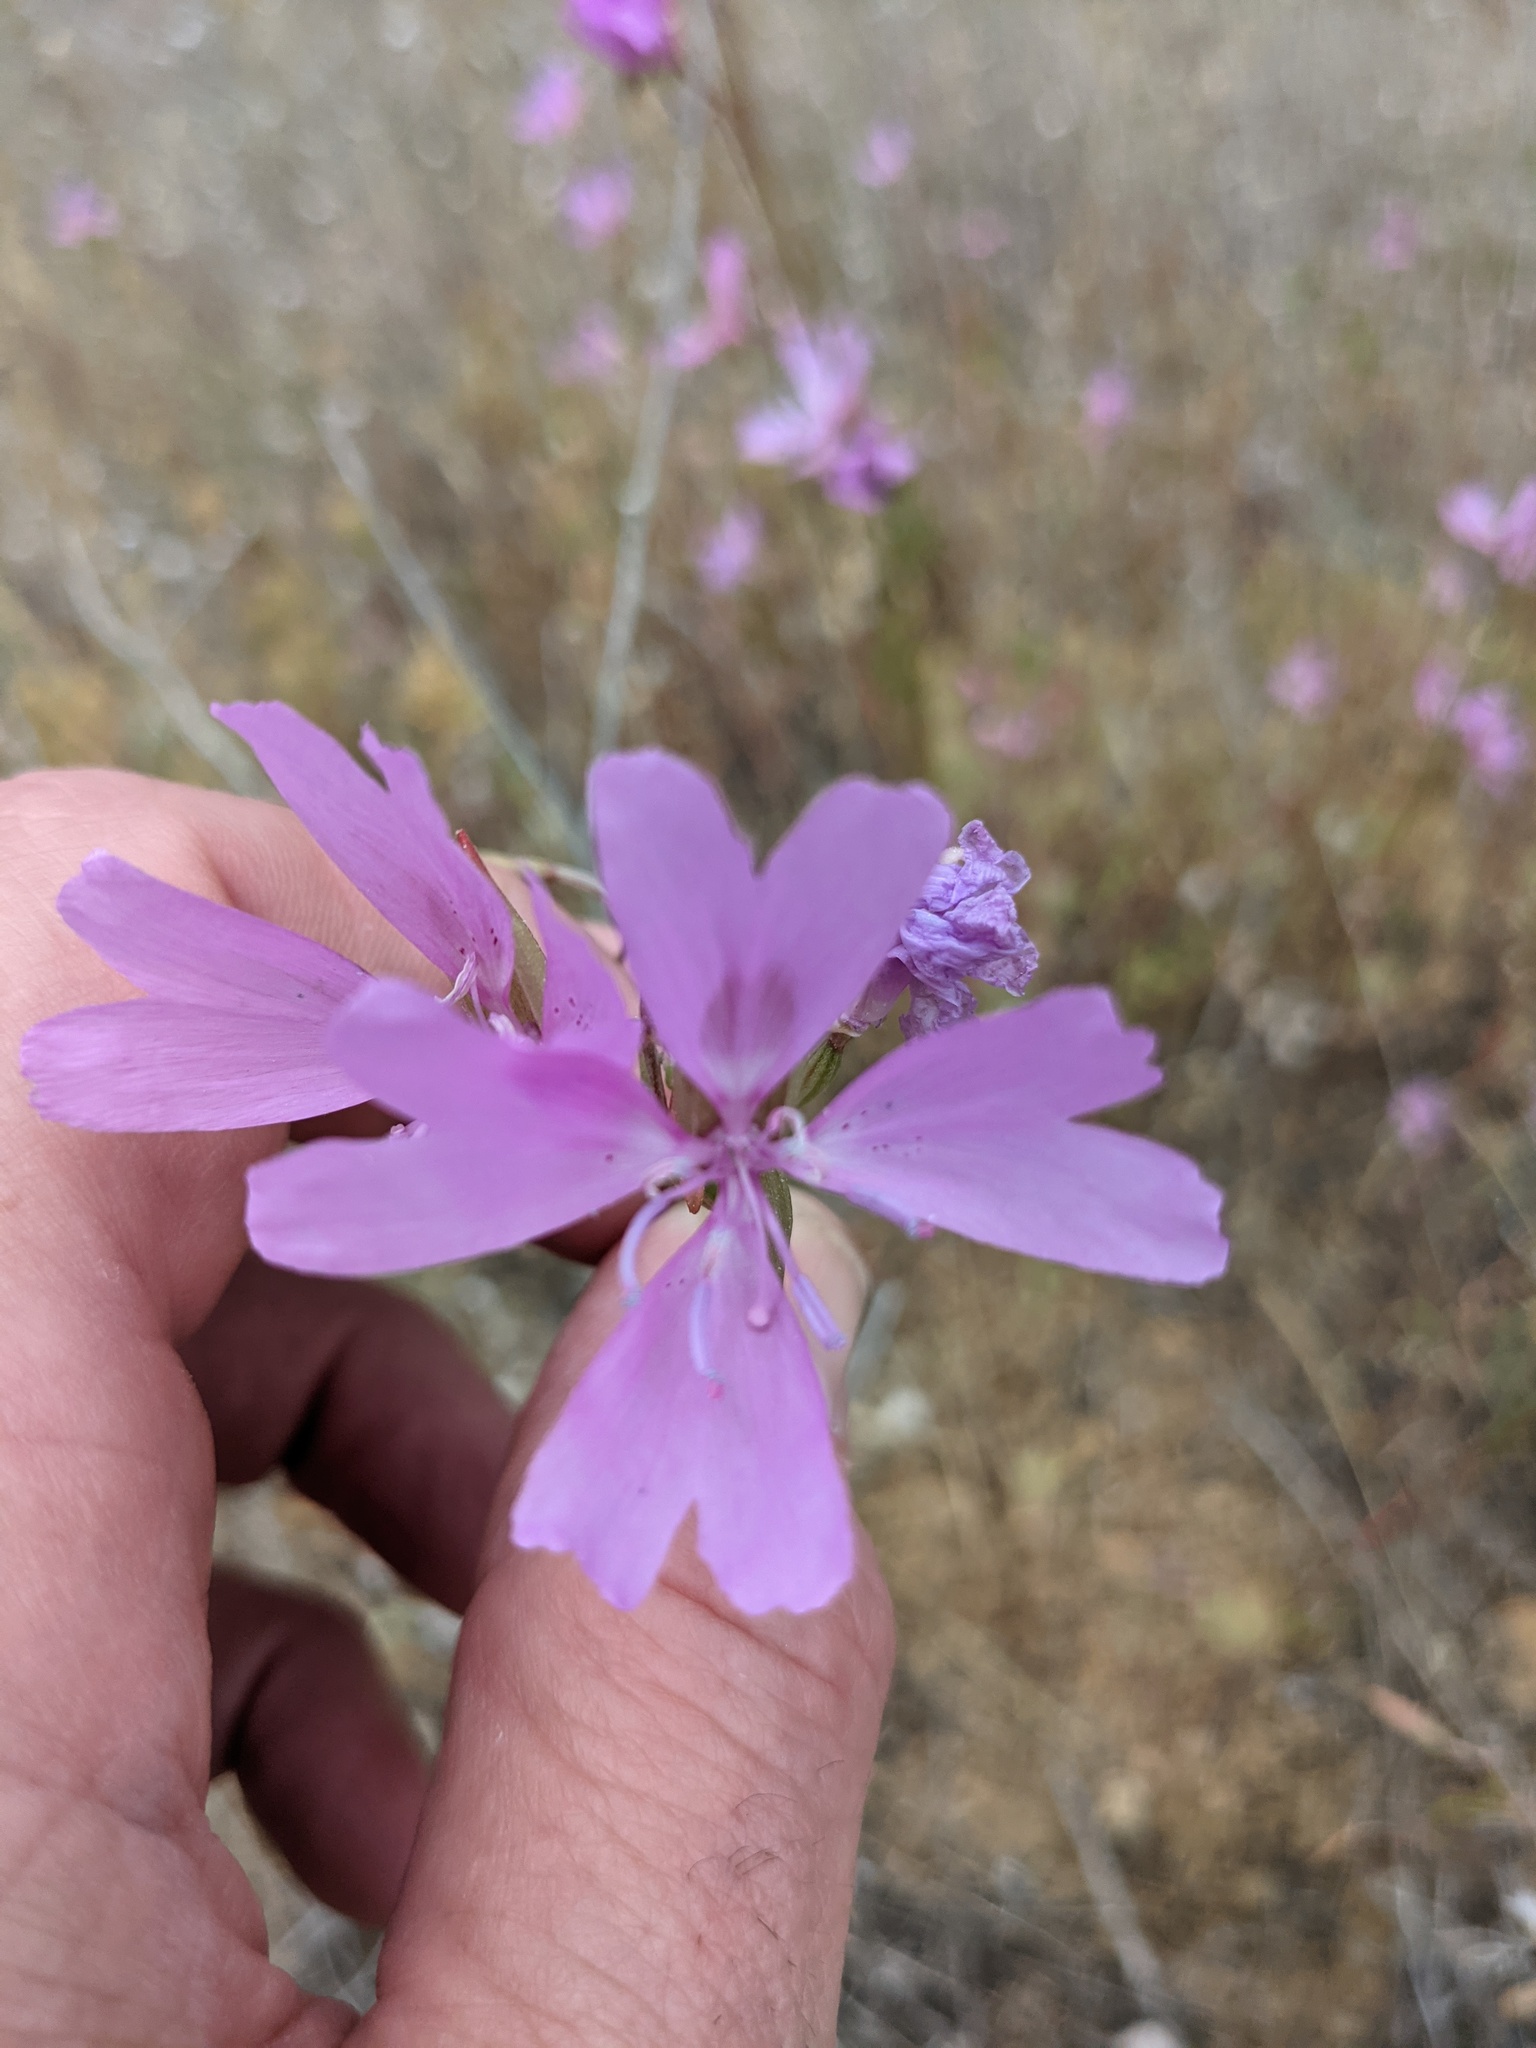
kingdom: Plantae
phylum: Tracheophyta
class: Magnoliopsida
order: Myrtales
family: Onagraceae
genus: Clarkia
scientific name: Clarkia biloba
